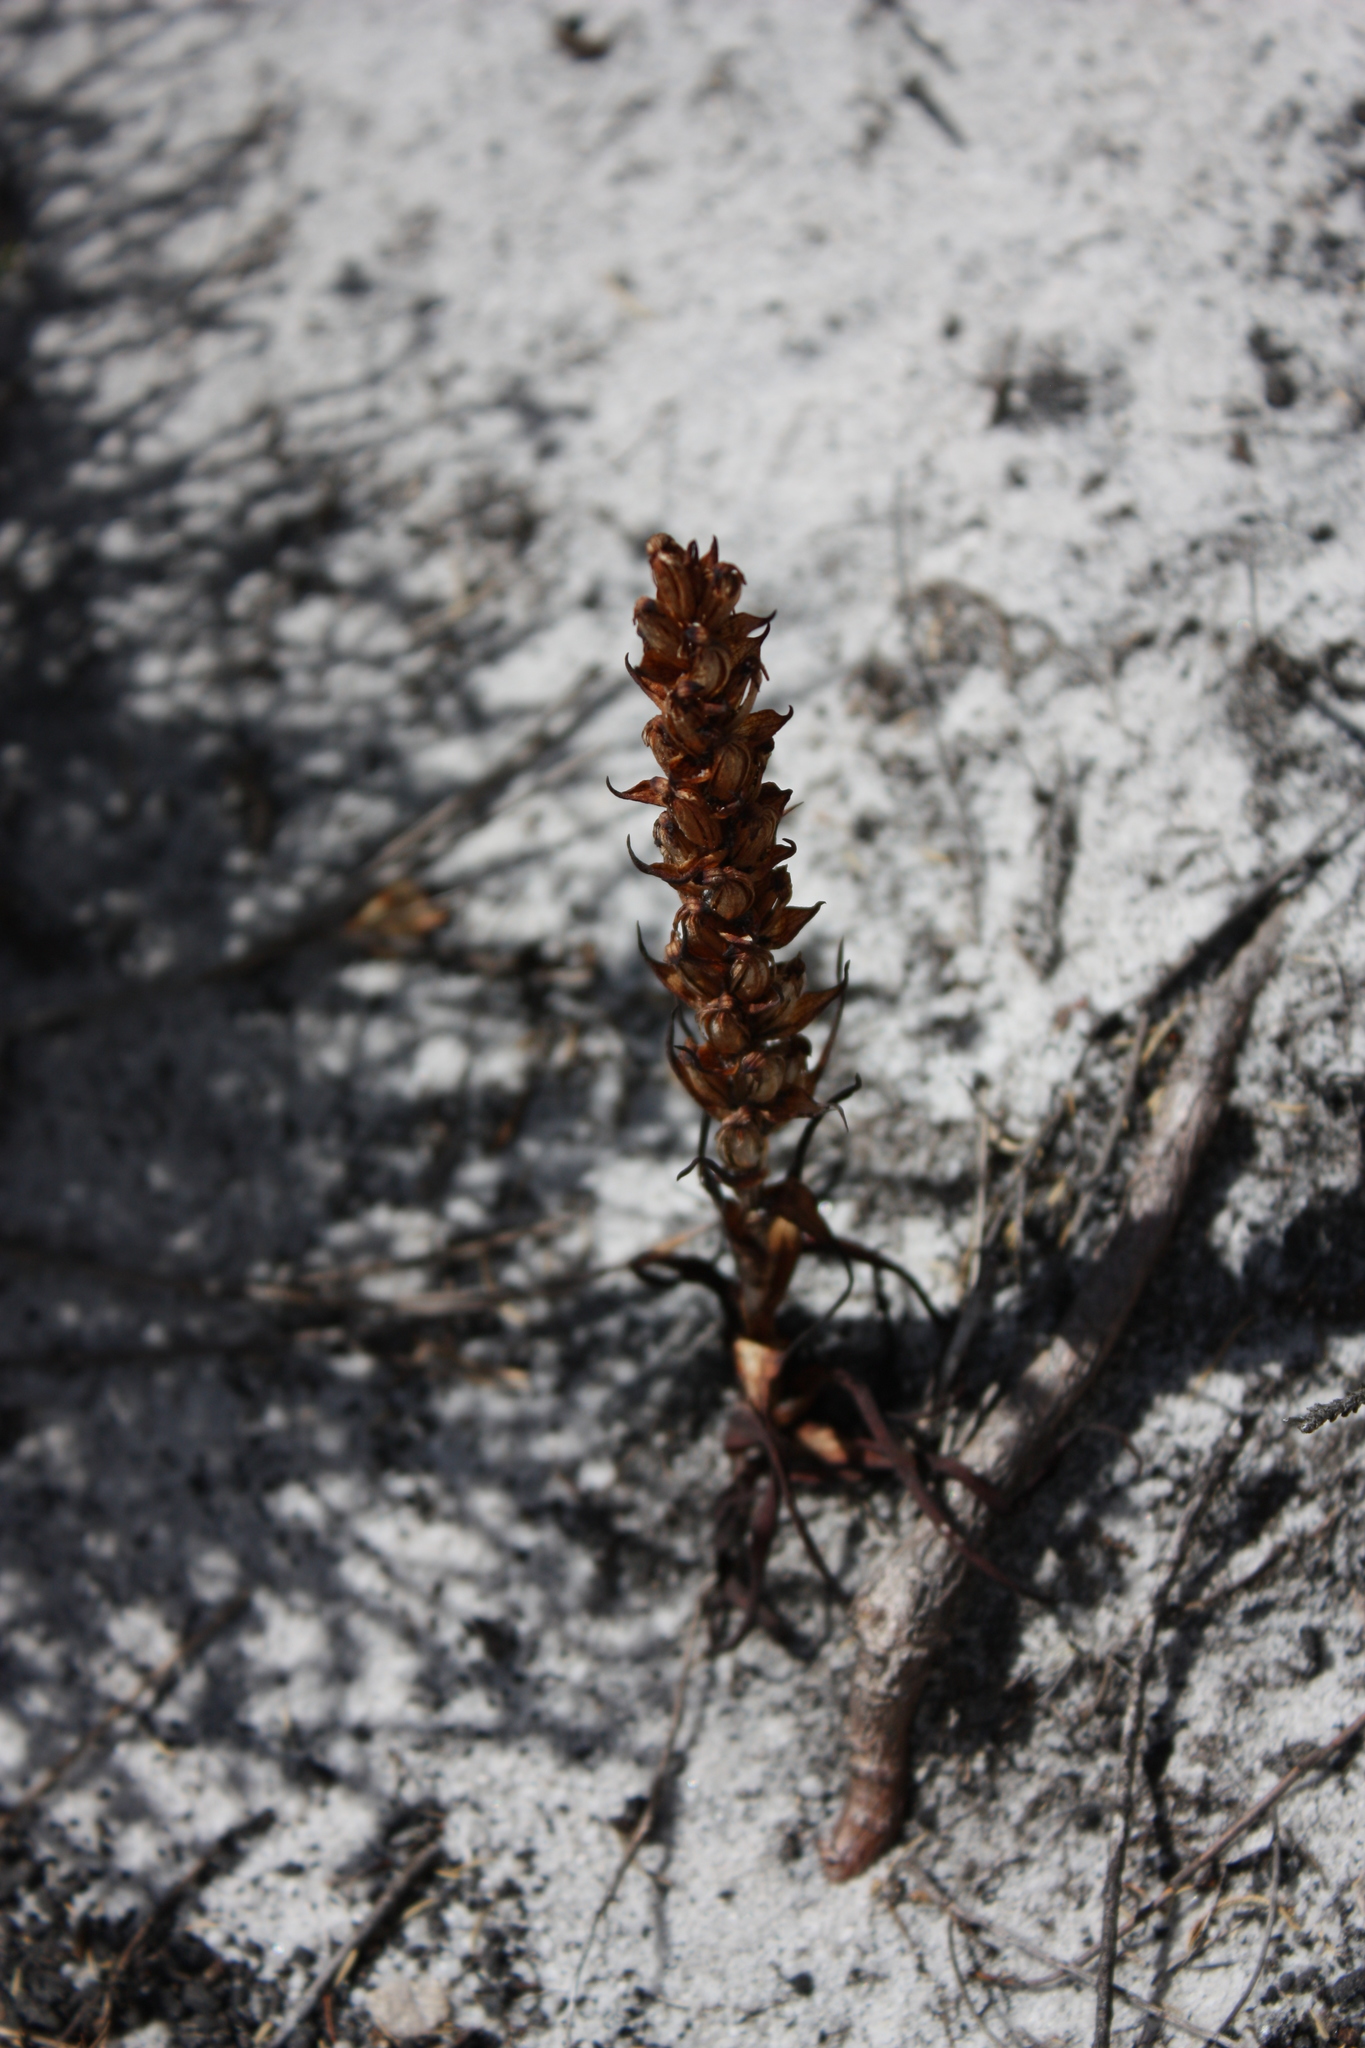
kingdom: Plantae
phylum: Tracheophyta
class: Liliopsida
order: Asparagales
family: Orchidaceae
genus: Disa
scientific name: Disa bracteata
